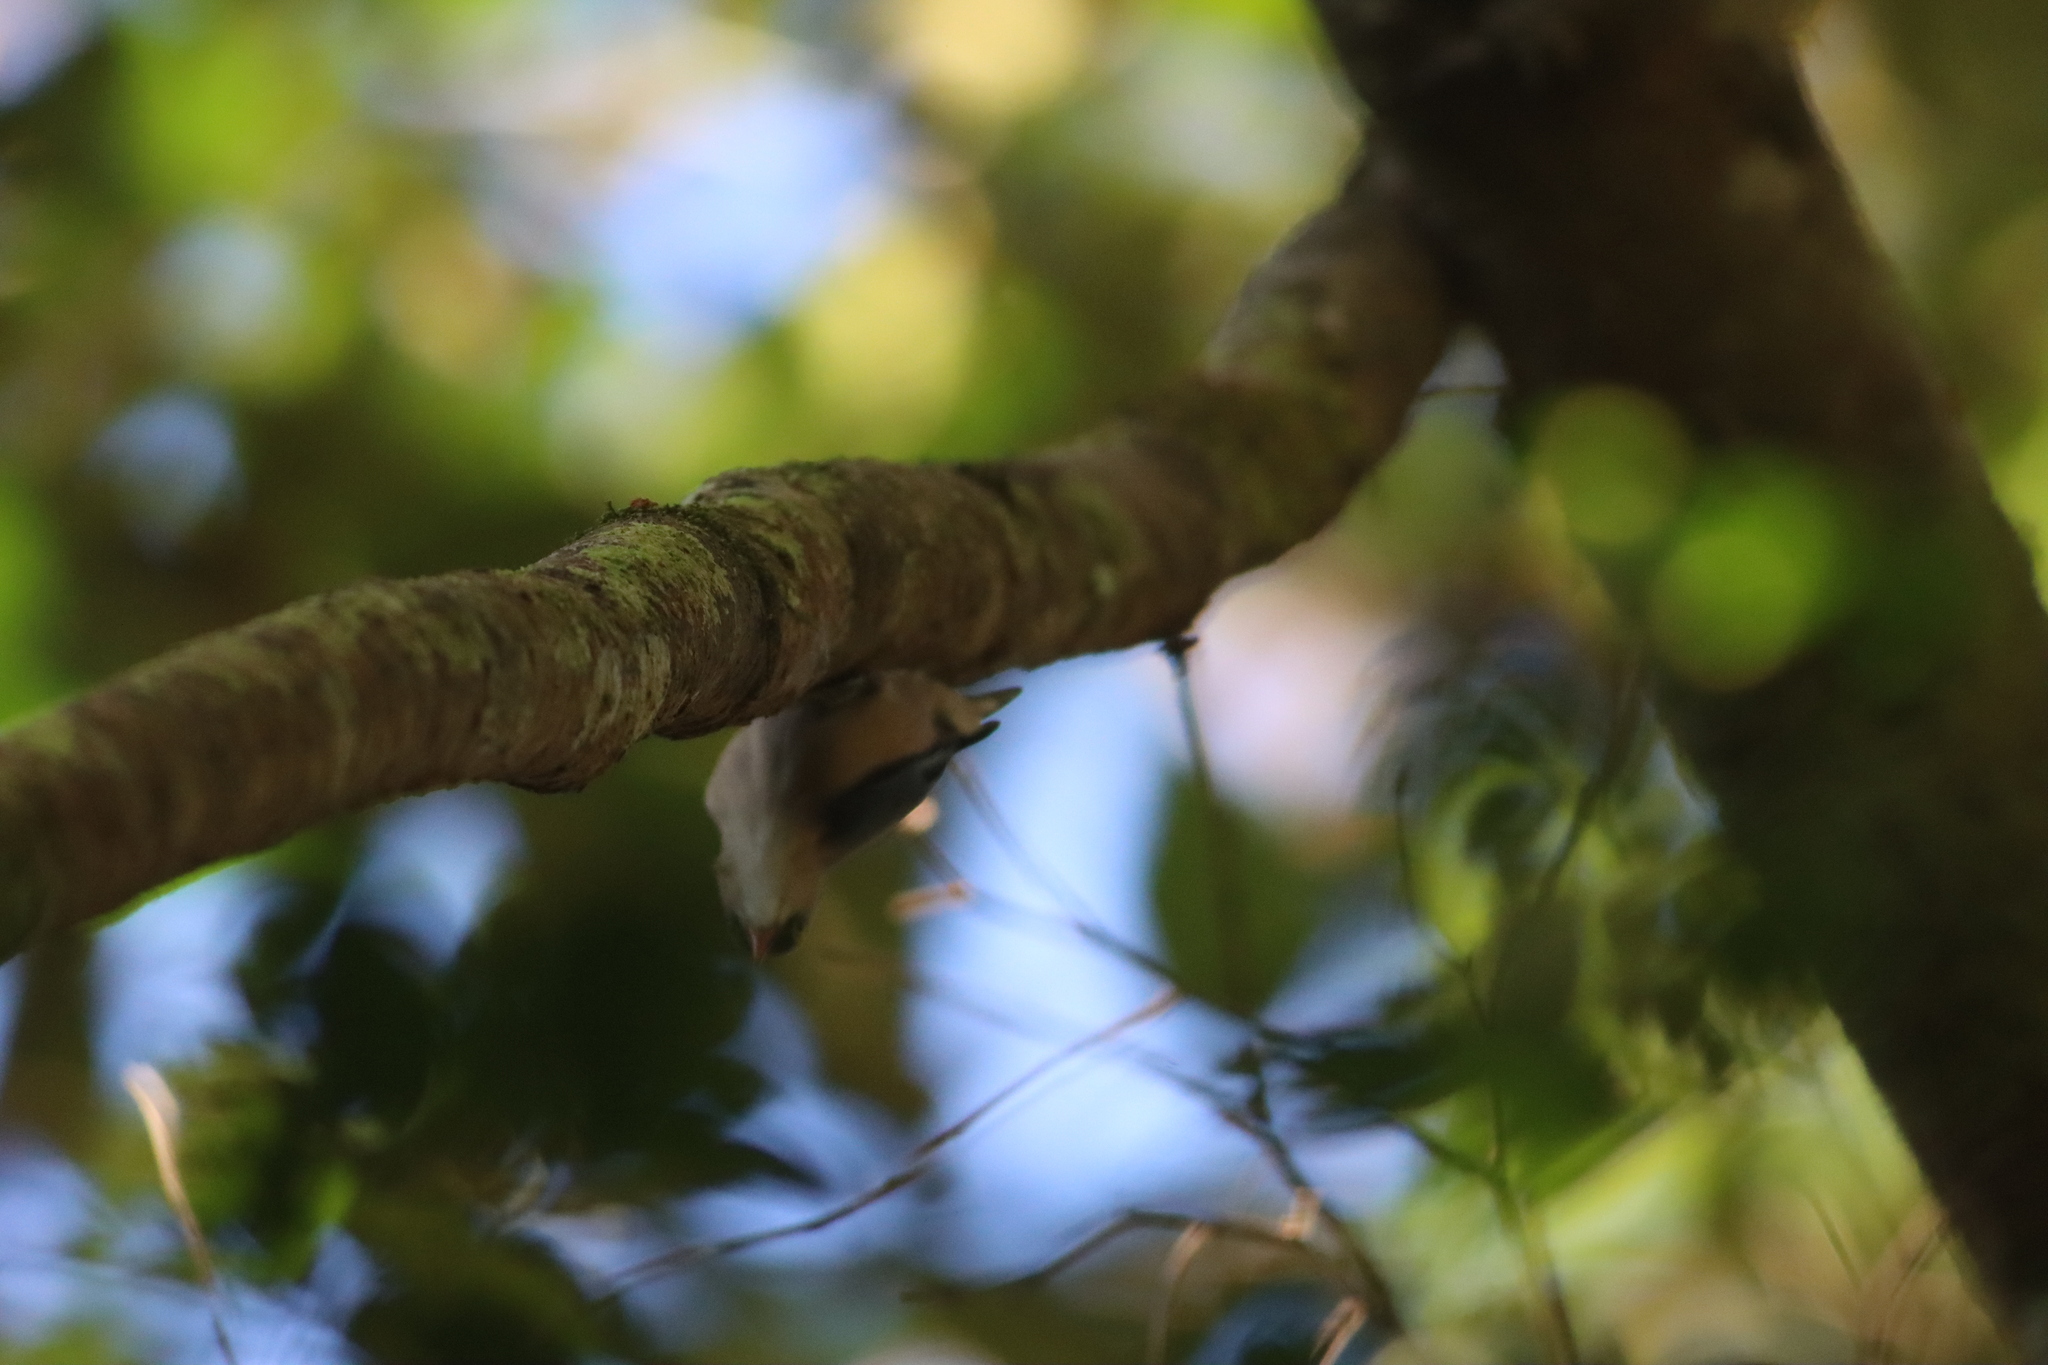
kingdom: Animalia
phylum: Chordata
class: Aves
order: Passeriformes
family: Sittidae
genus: Sitta
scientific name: Sitta frontalis
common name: Velvet-fronted nuthatch
